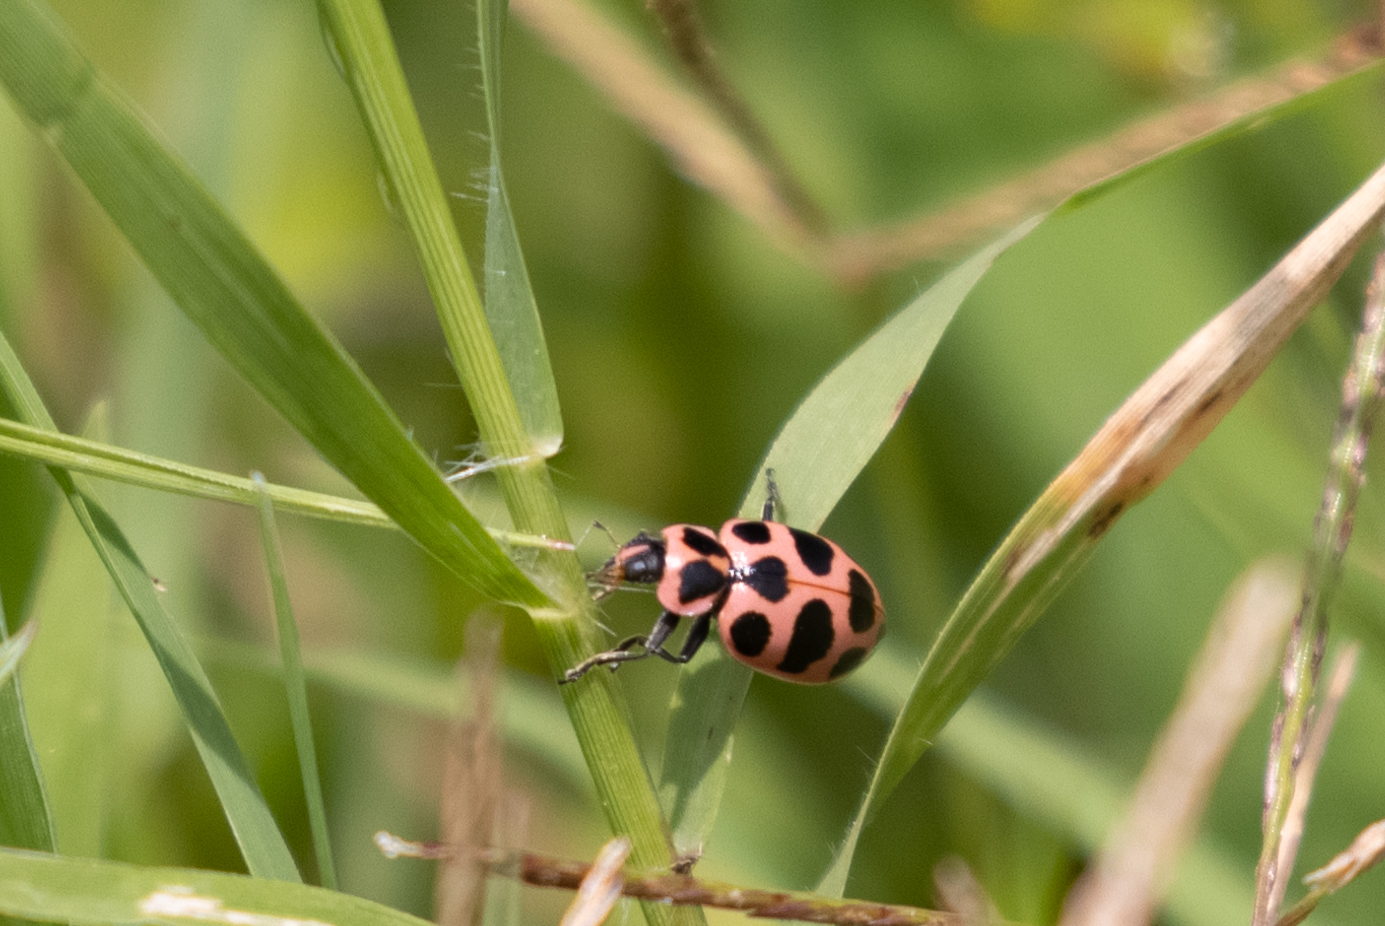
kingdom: Animalia
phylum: Arthropoda
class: Insecta
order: Coleoptera
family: Coccinellidae
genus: Coleomegilla
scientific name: Coleomegilla maculata
